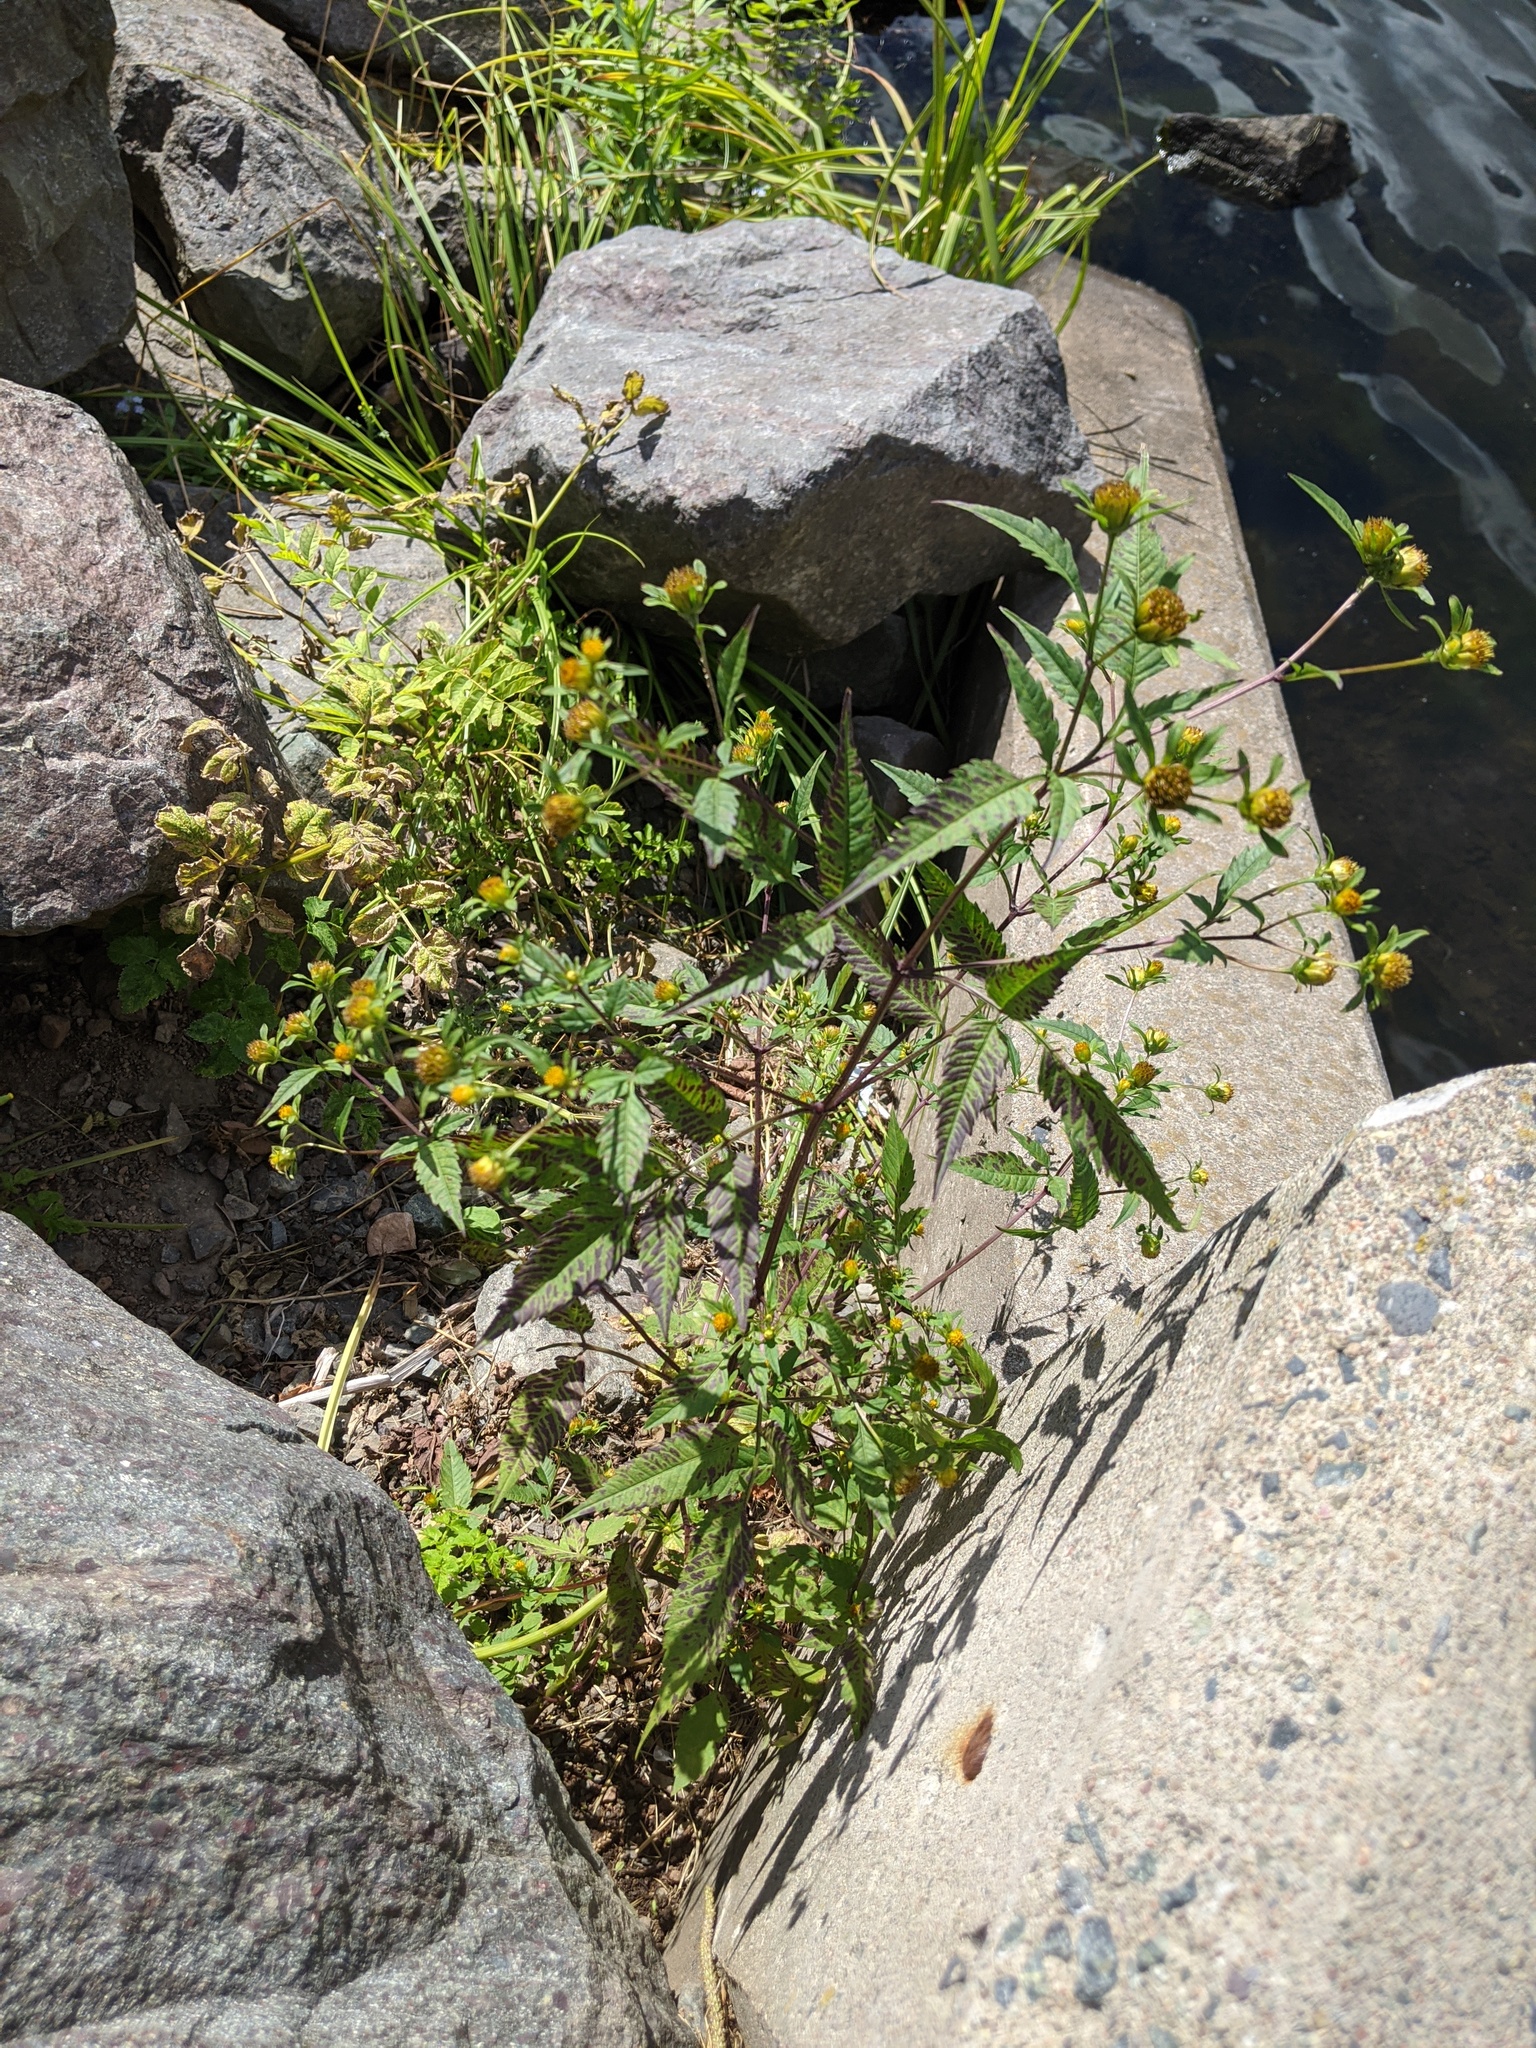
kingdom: Plantae
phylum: Tracheophyta
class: Magnoliopsida
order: Asterales
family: Asteraceae
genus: Bidens
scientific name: Bidens frondosa
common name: Beggarticks
